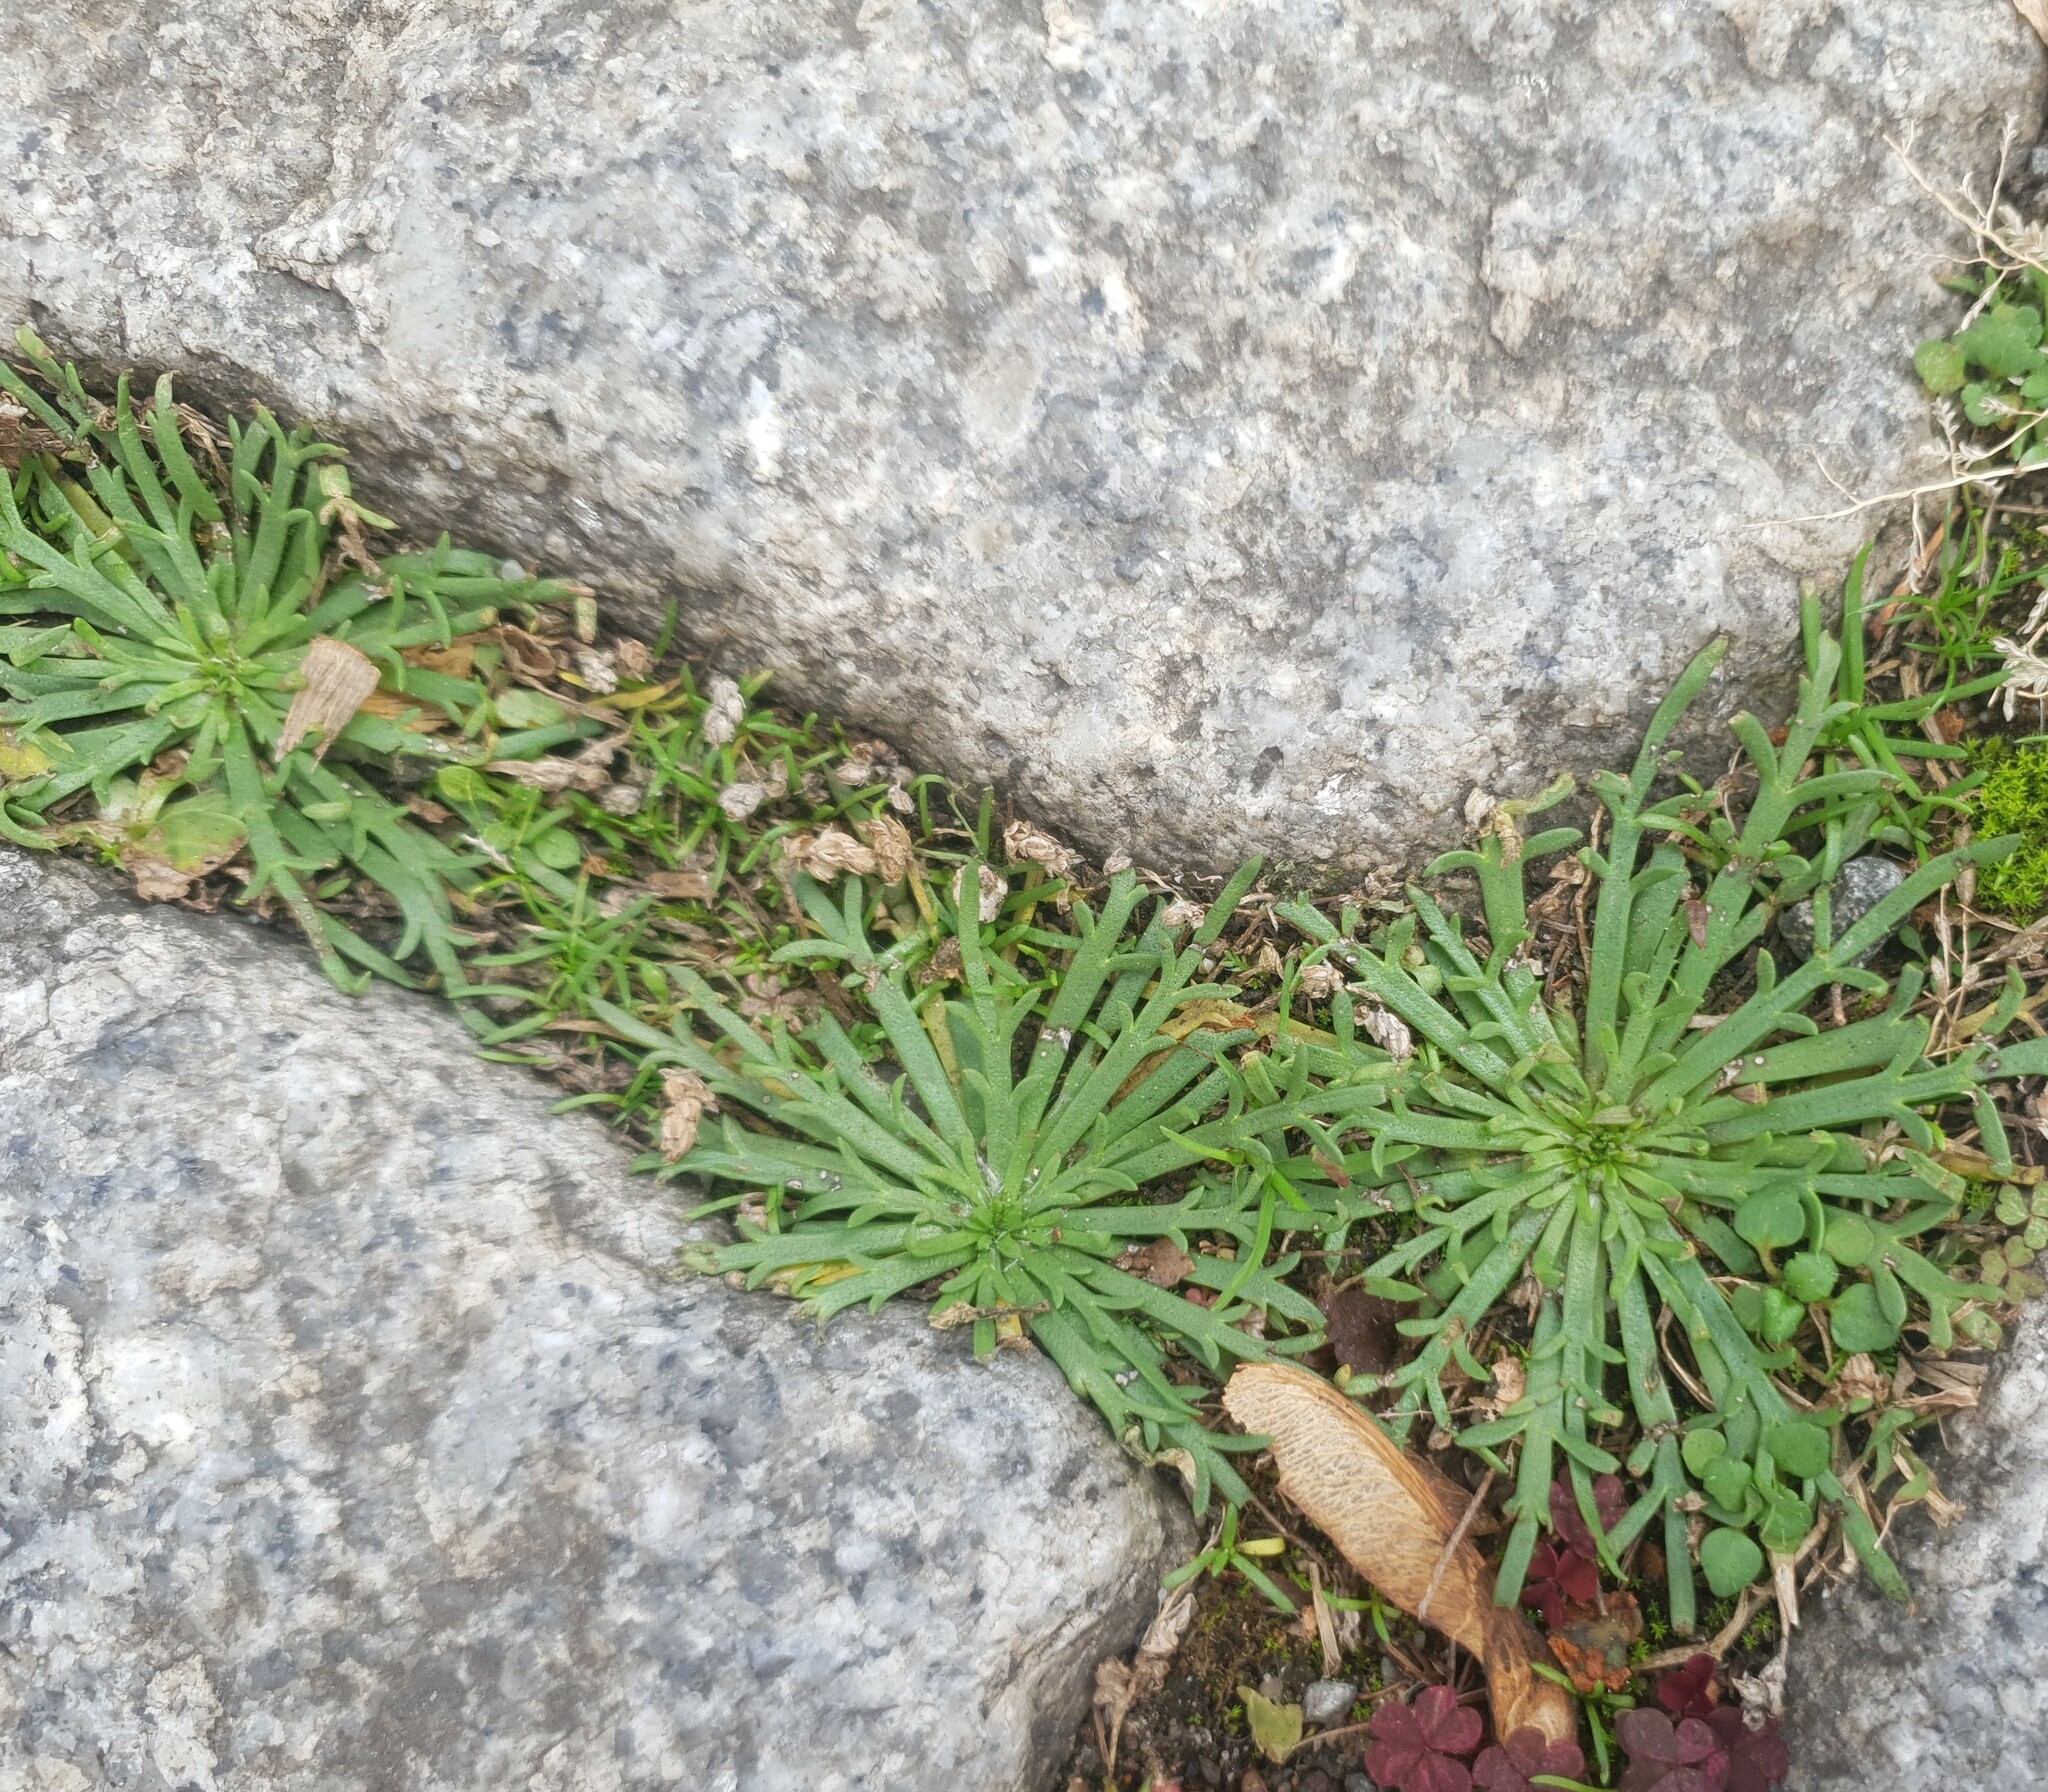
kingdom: Plantae
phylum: Tracheophyta
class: Magnoliopsida
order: Lamiales
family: Plantaginaceae
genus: Plantago
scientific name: Plantago coronopus
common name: Buck's-horn plantain
